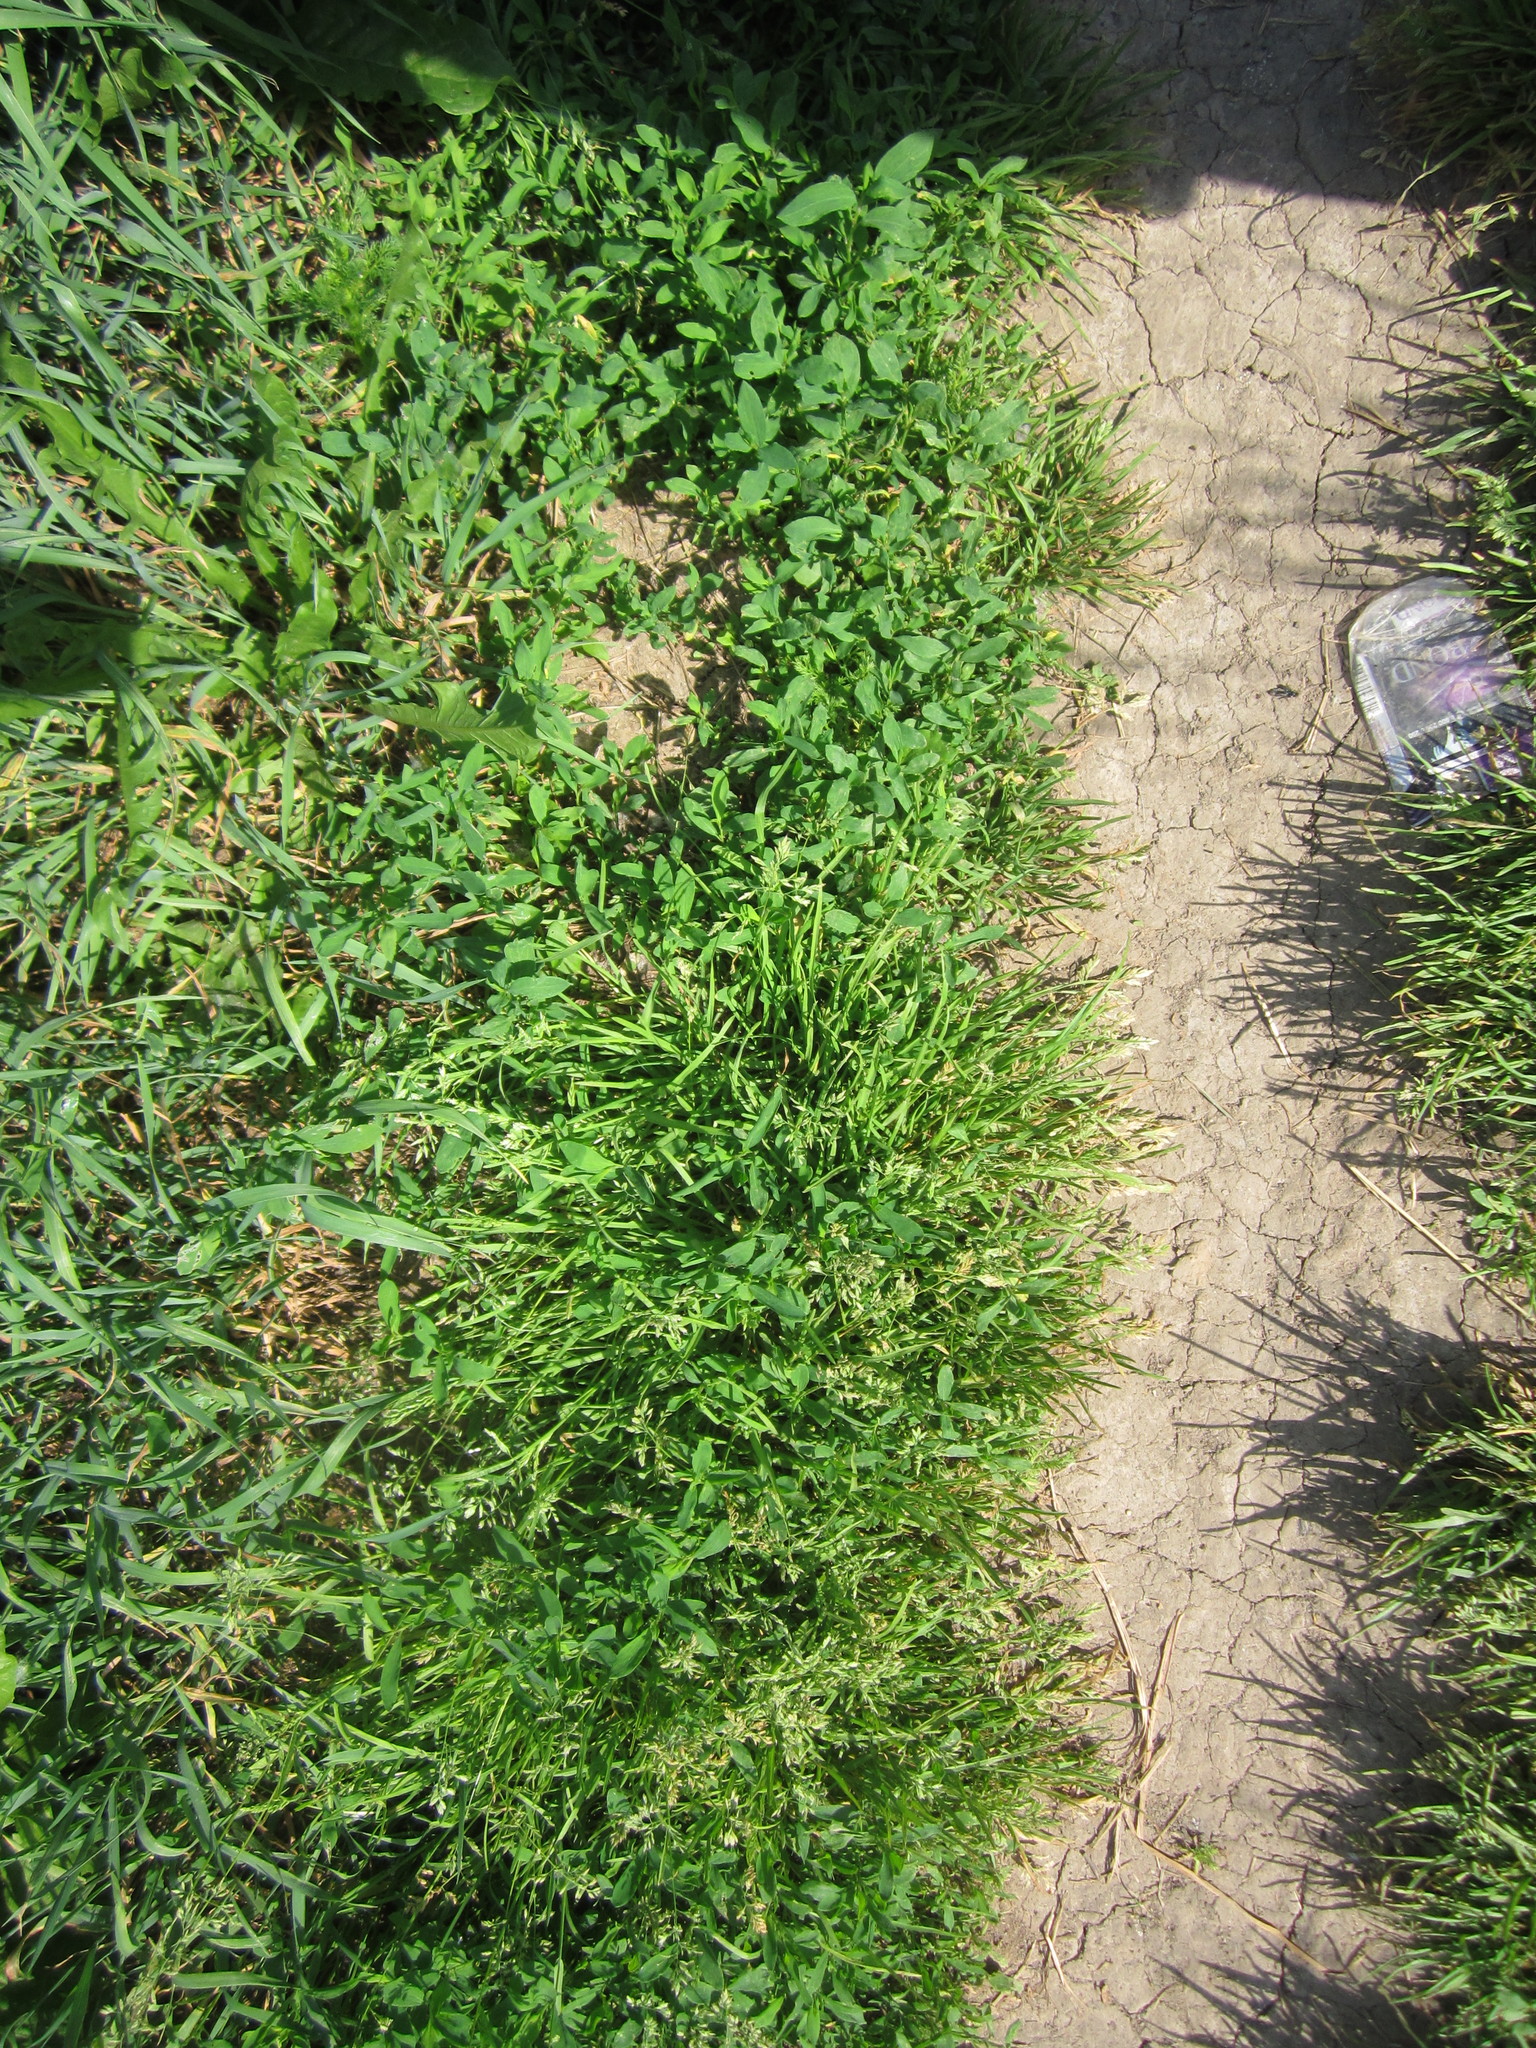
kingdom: Plantae
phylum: Tracheophyta
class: Liliopsida
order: Poales
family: Poaceae
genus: Poa
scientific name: Poa annua
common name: Annual bluegrass
